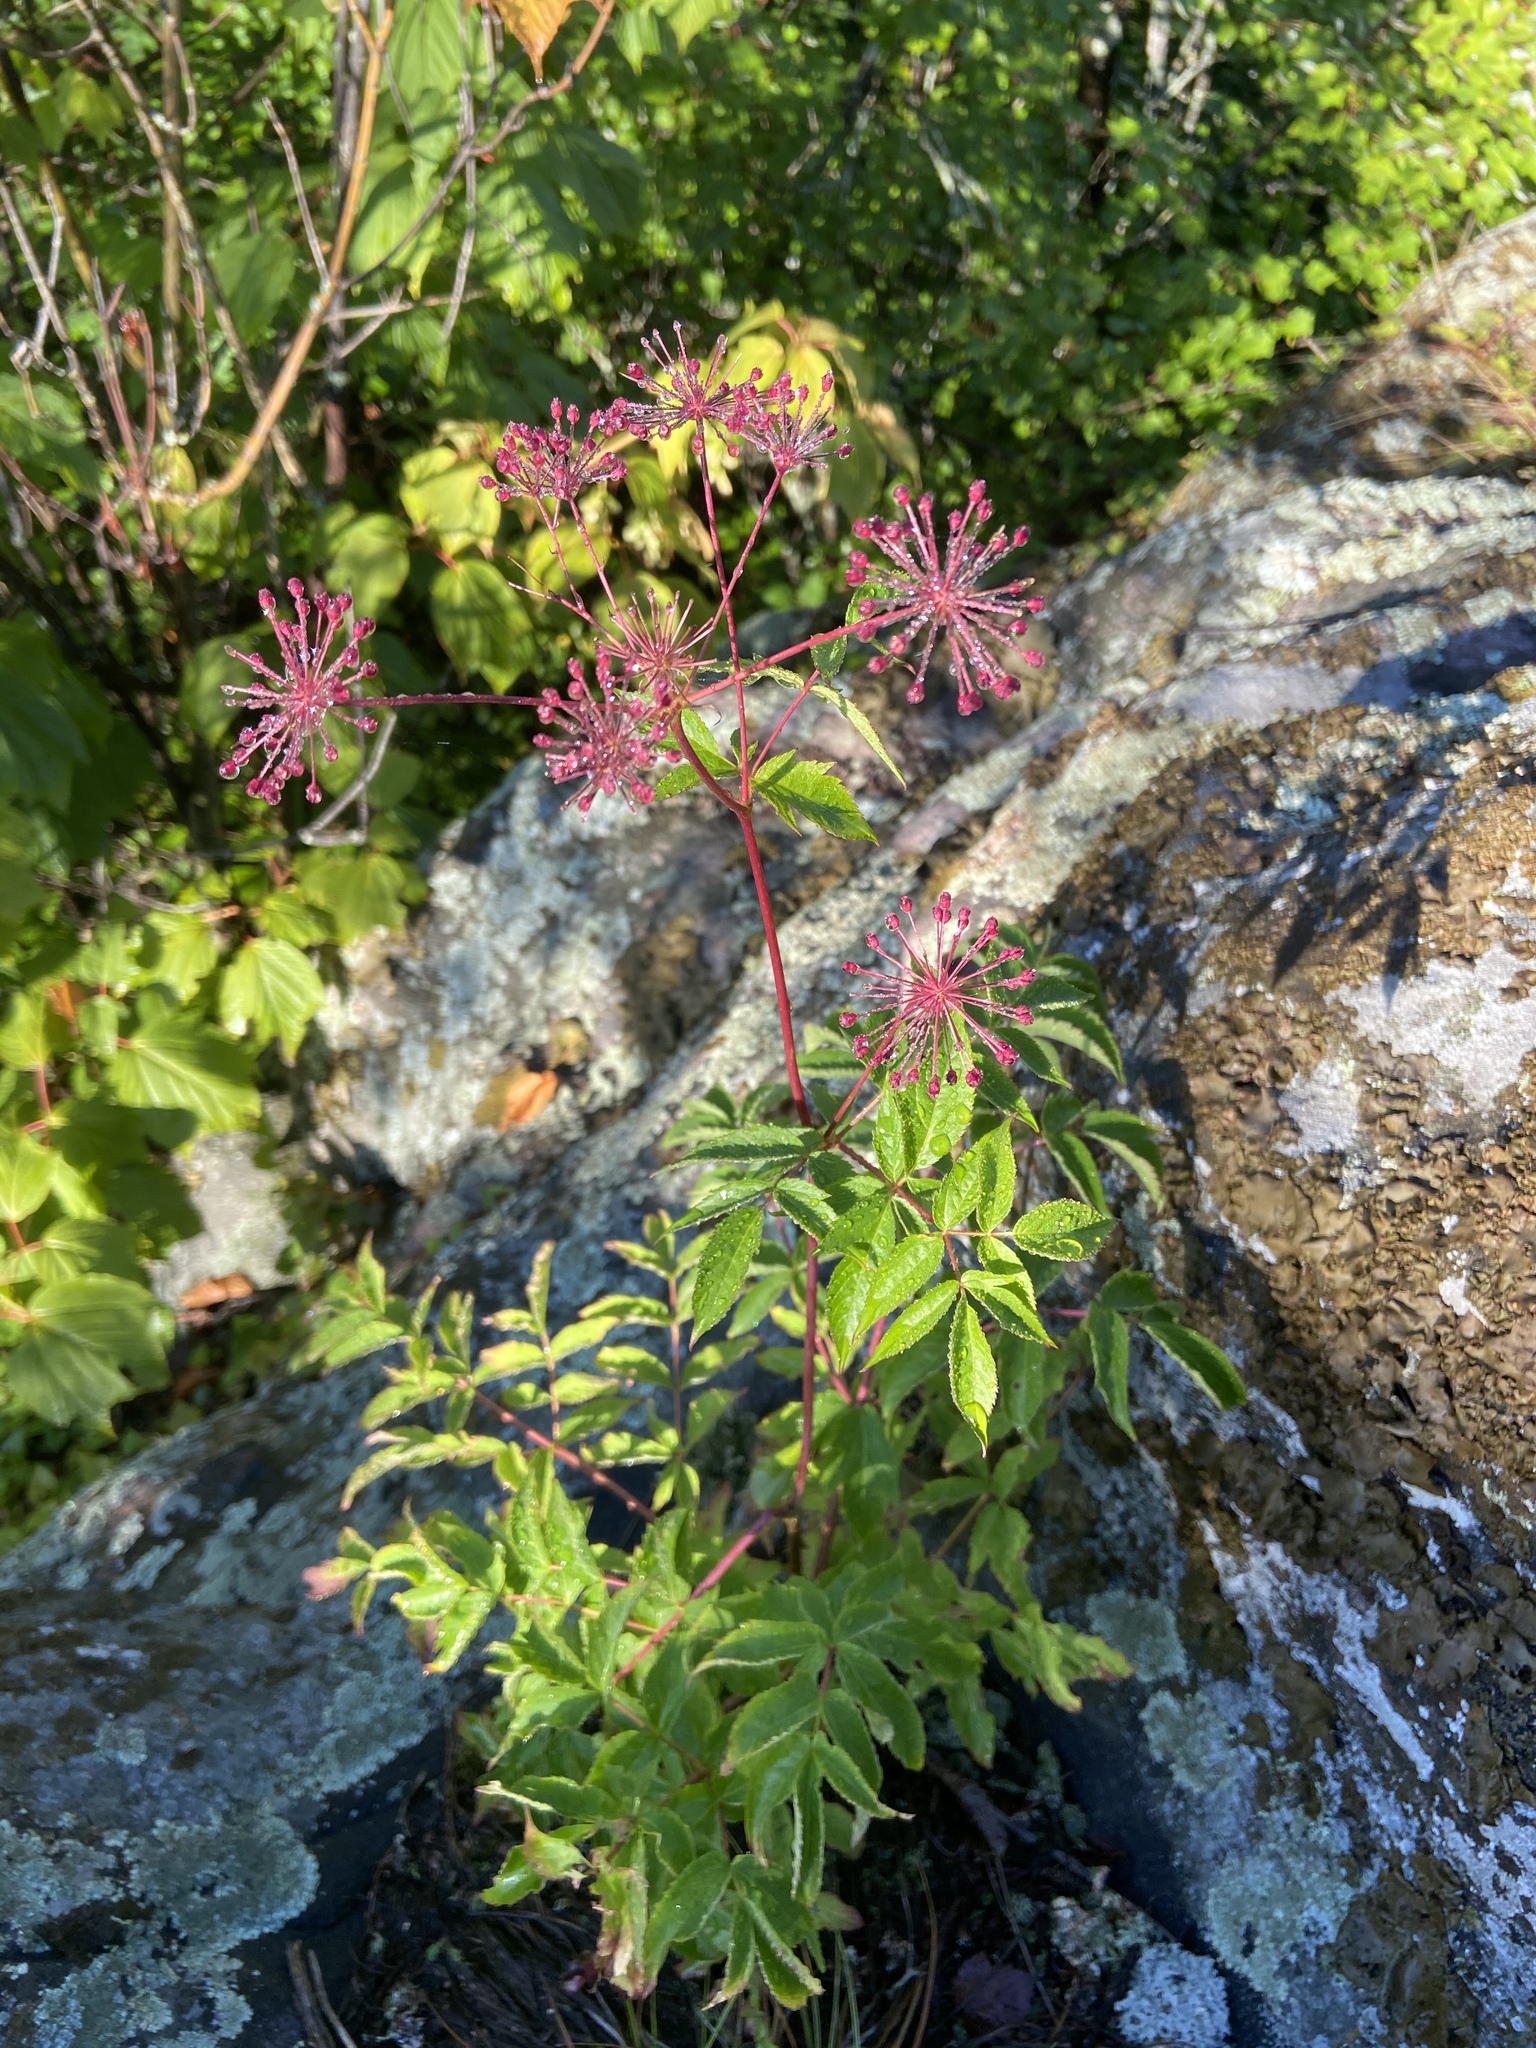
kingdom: Plantae
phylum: Tracheophyta
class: Magnoliopsida
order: Apiales
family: Araliaceae
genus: Aralia
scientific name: Aralia hispida
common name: Bristly sarsaparilla
